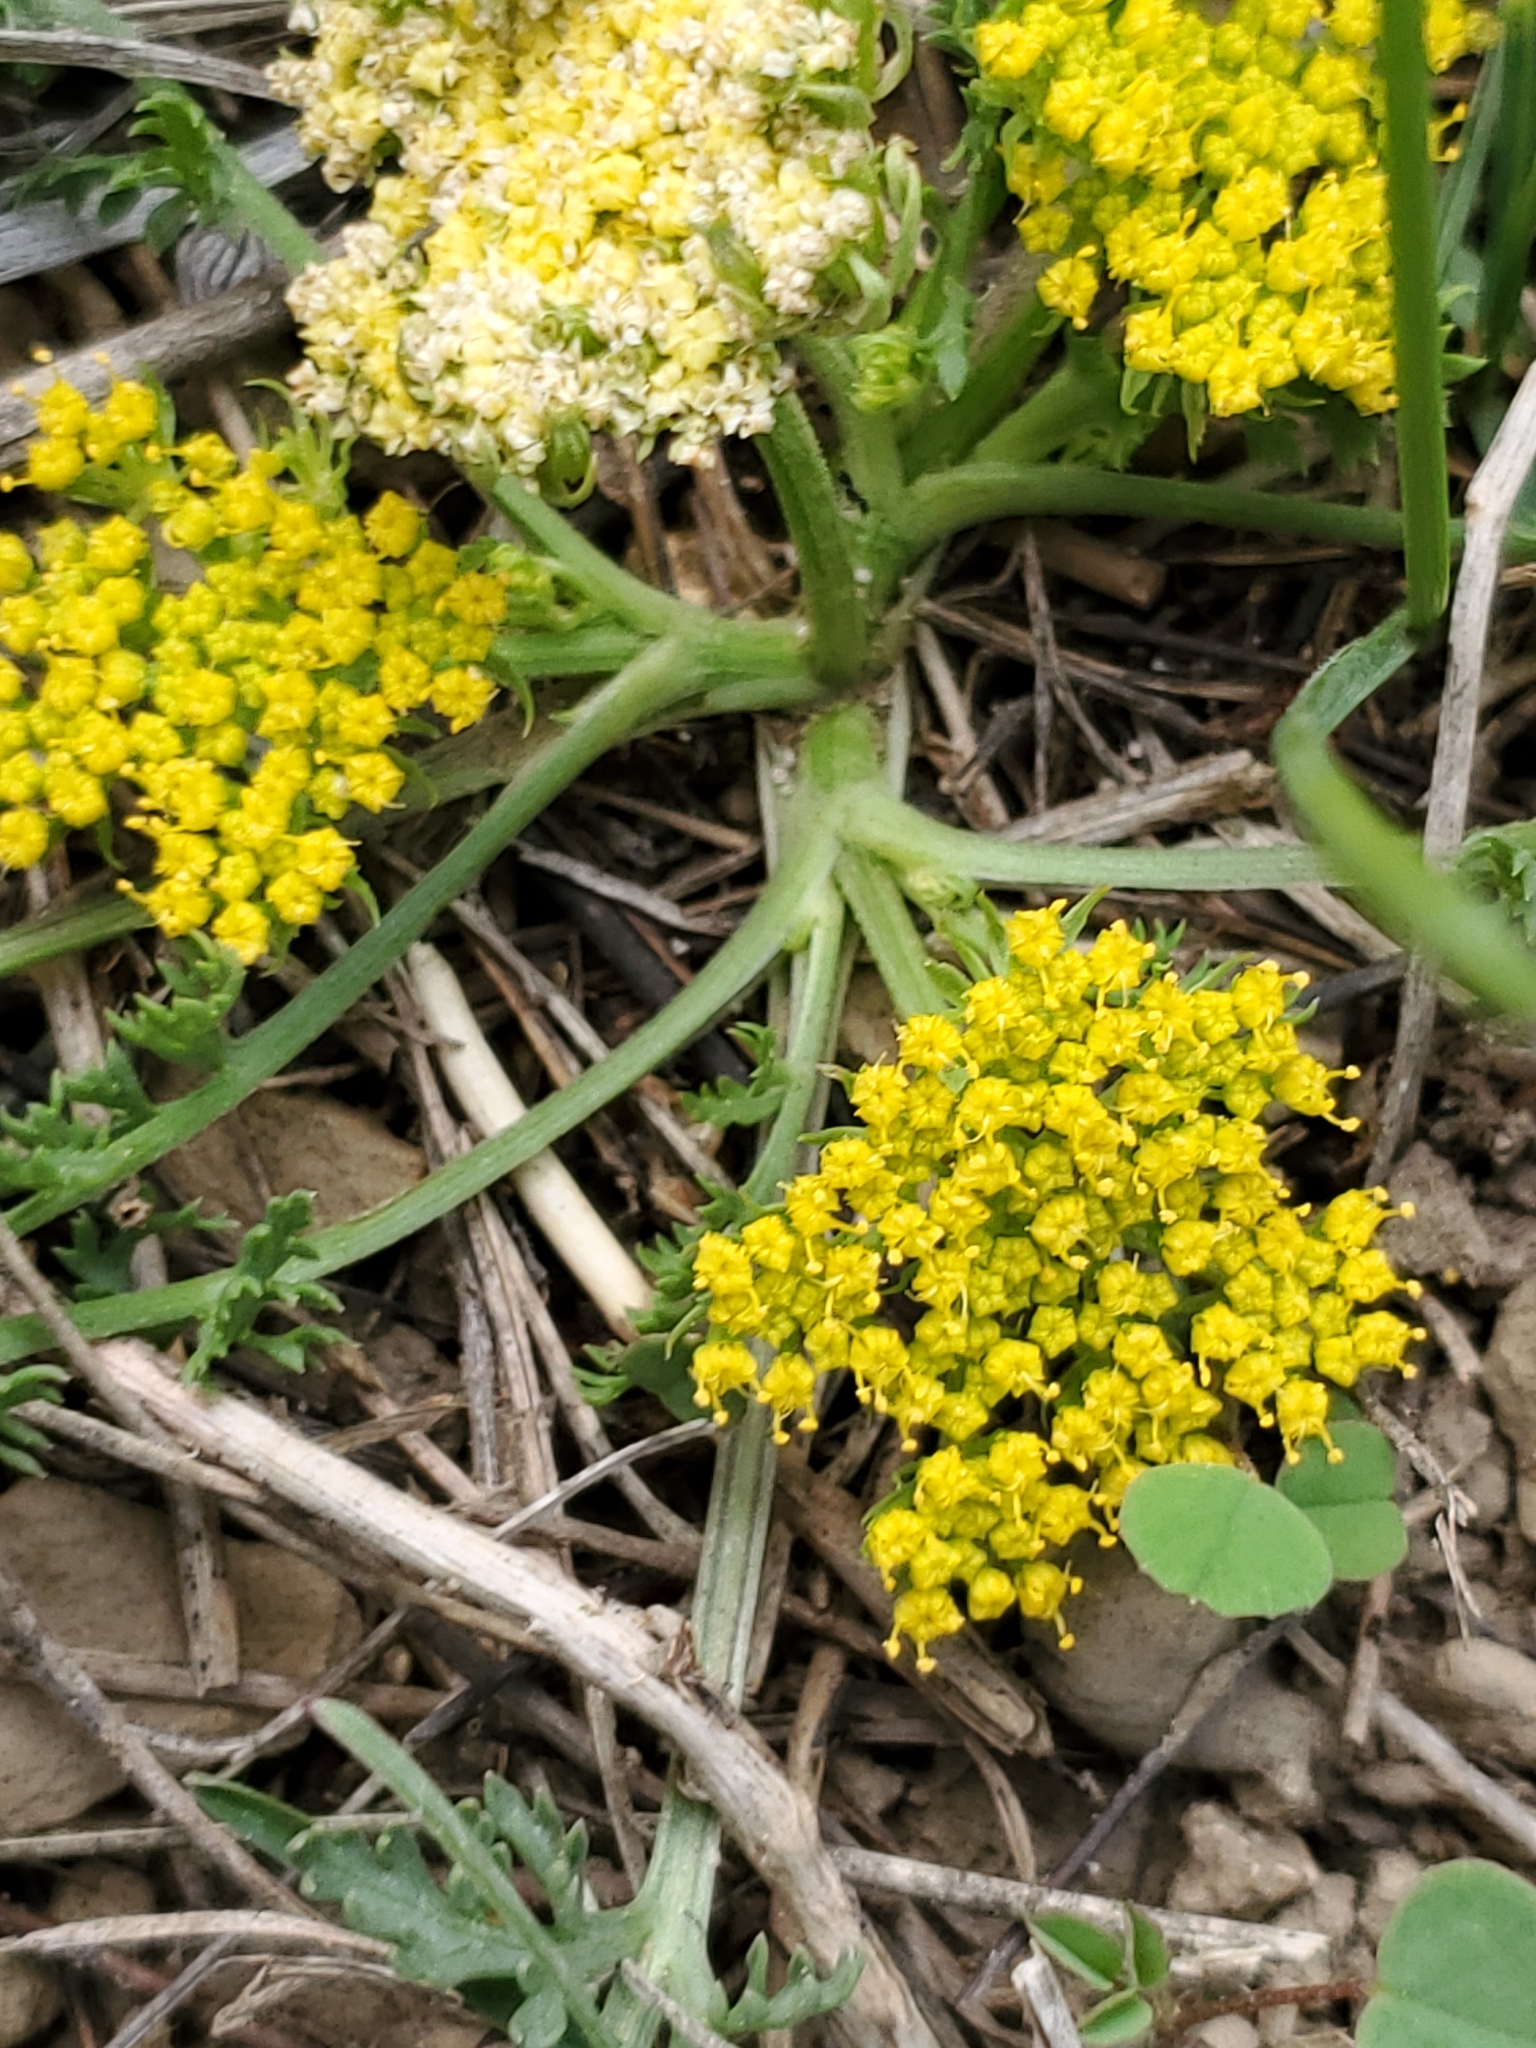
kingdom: Plantae
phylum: Tracheophyta
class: Magnoliopsida
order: Apiales
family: Apiaceae
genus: Musineon
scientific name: Musineon divaricatum
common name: Plains musineon
